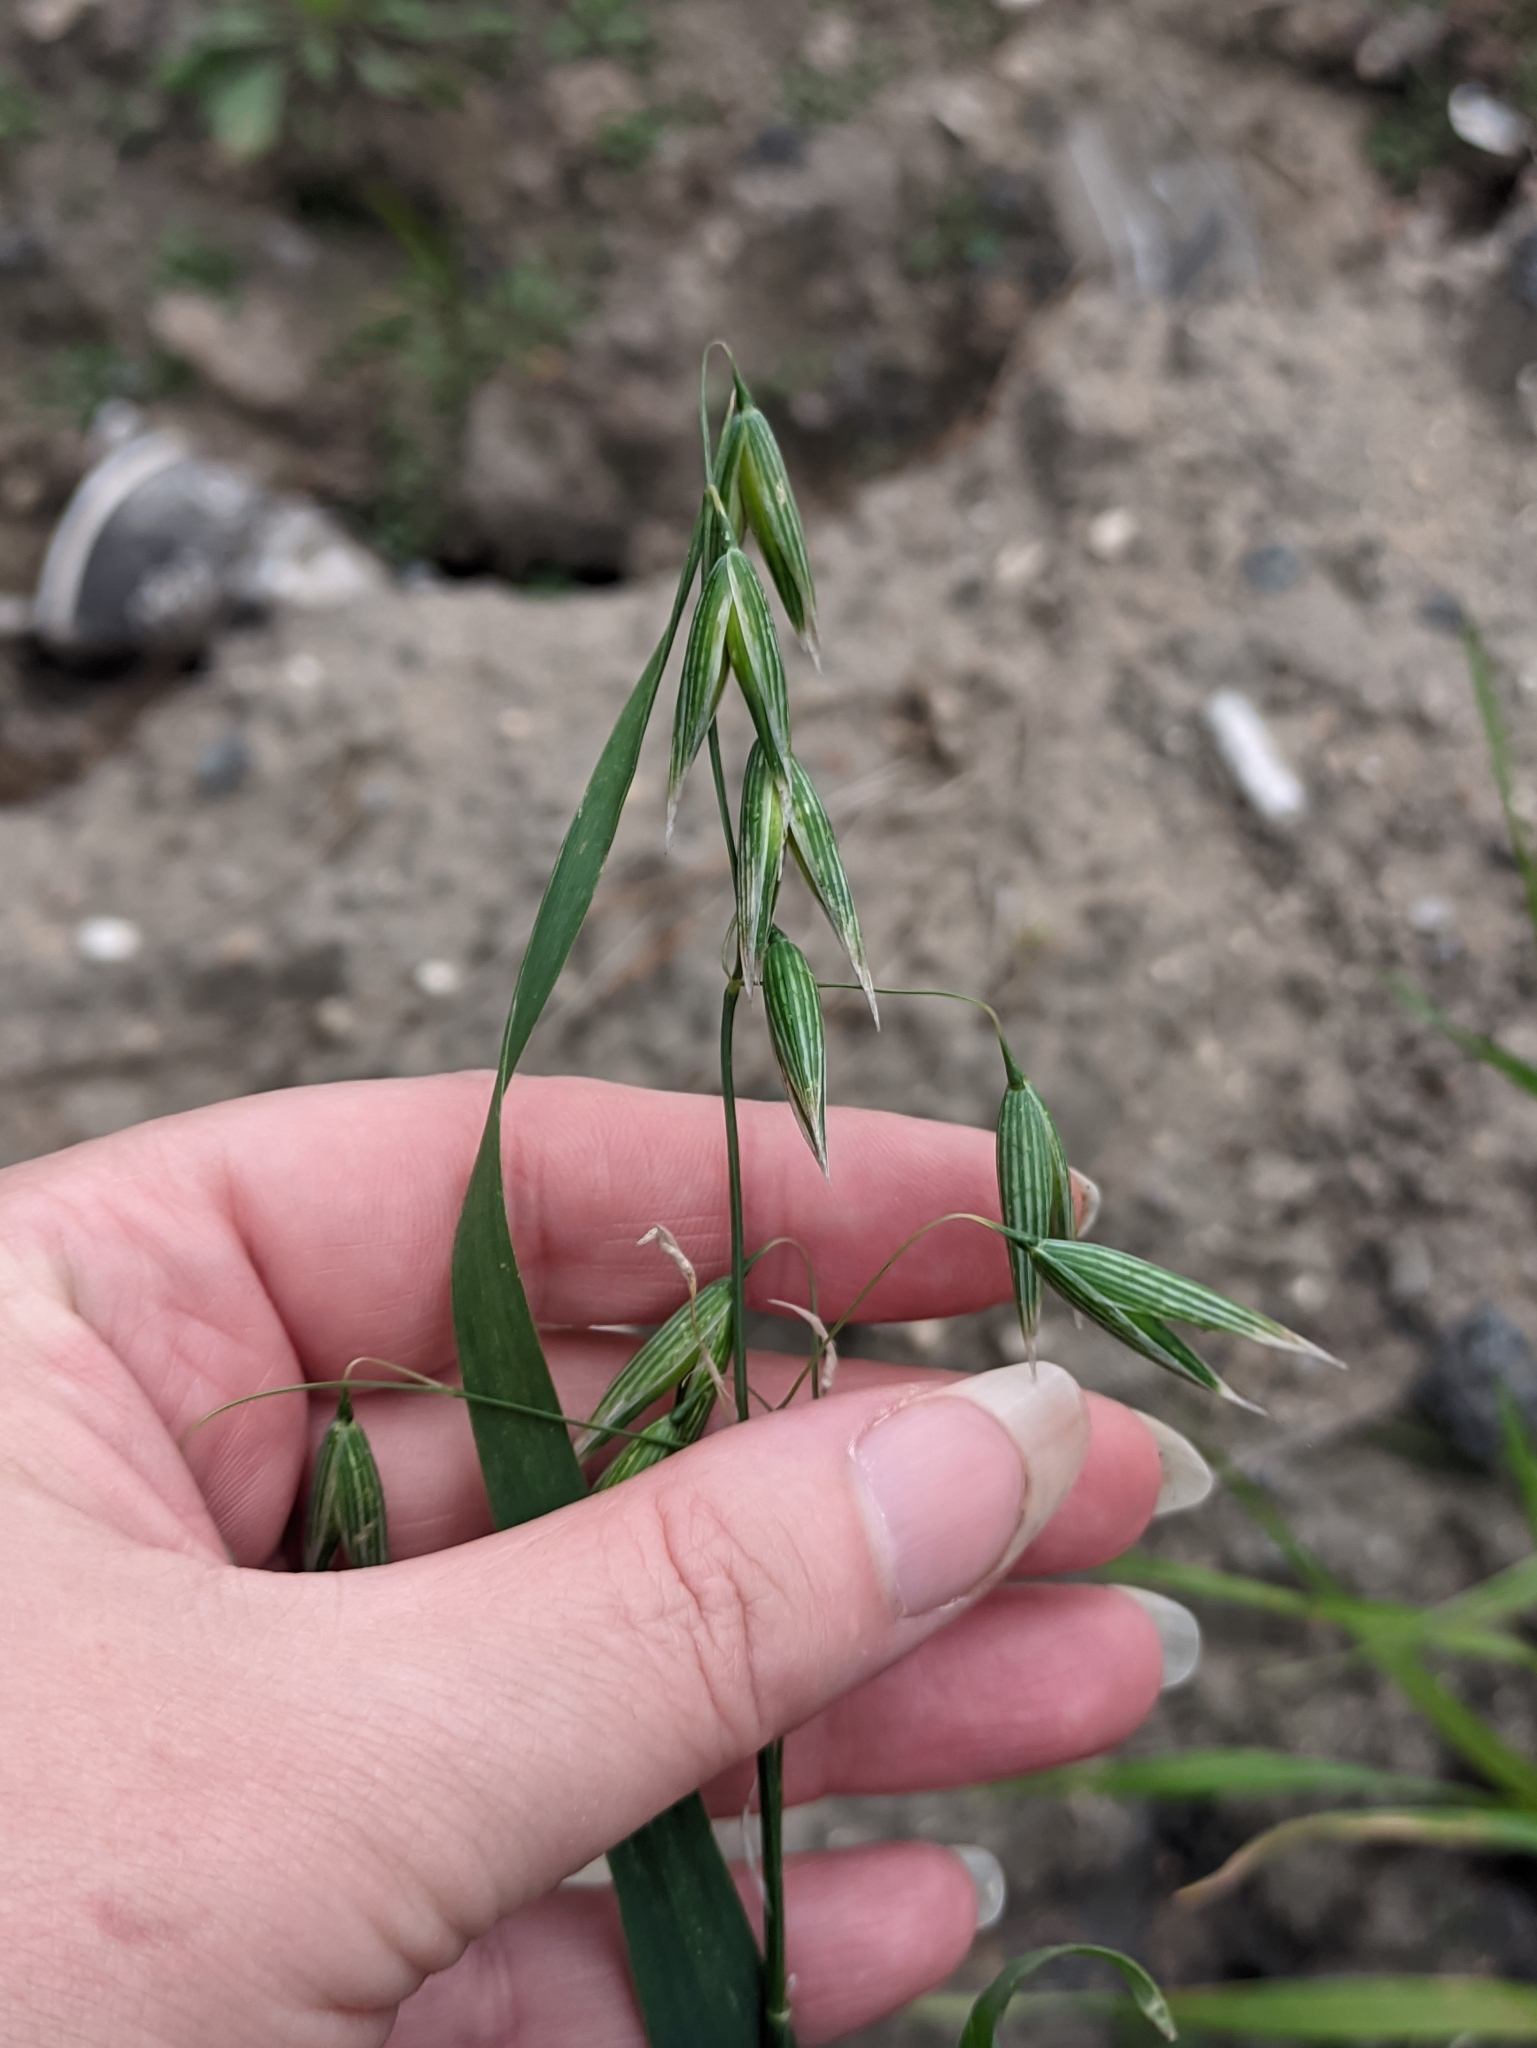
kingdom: Plantae
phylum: Tracheophyta
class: Liliopsida
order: Poales
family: Poaceae
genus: Avena
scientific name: Avena sativa
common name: Oat
